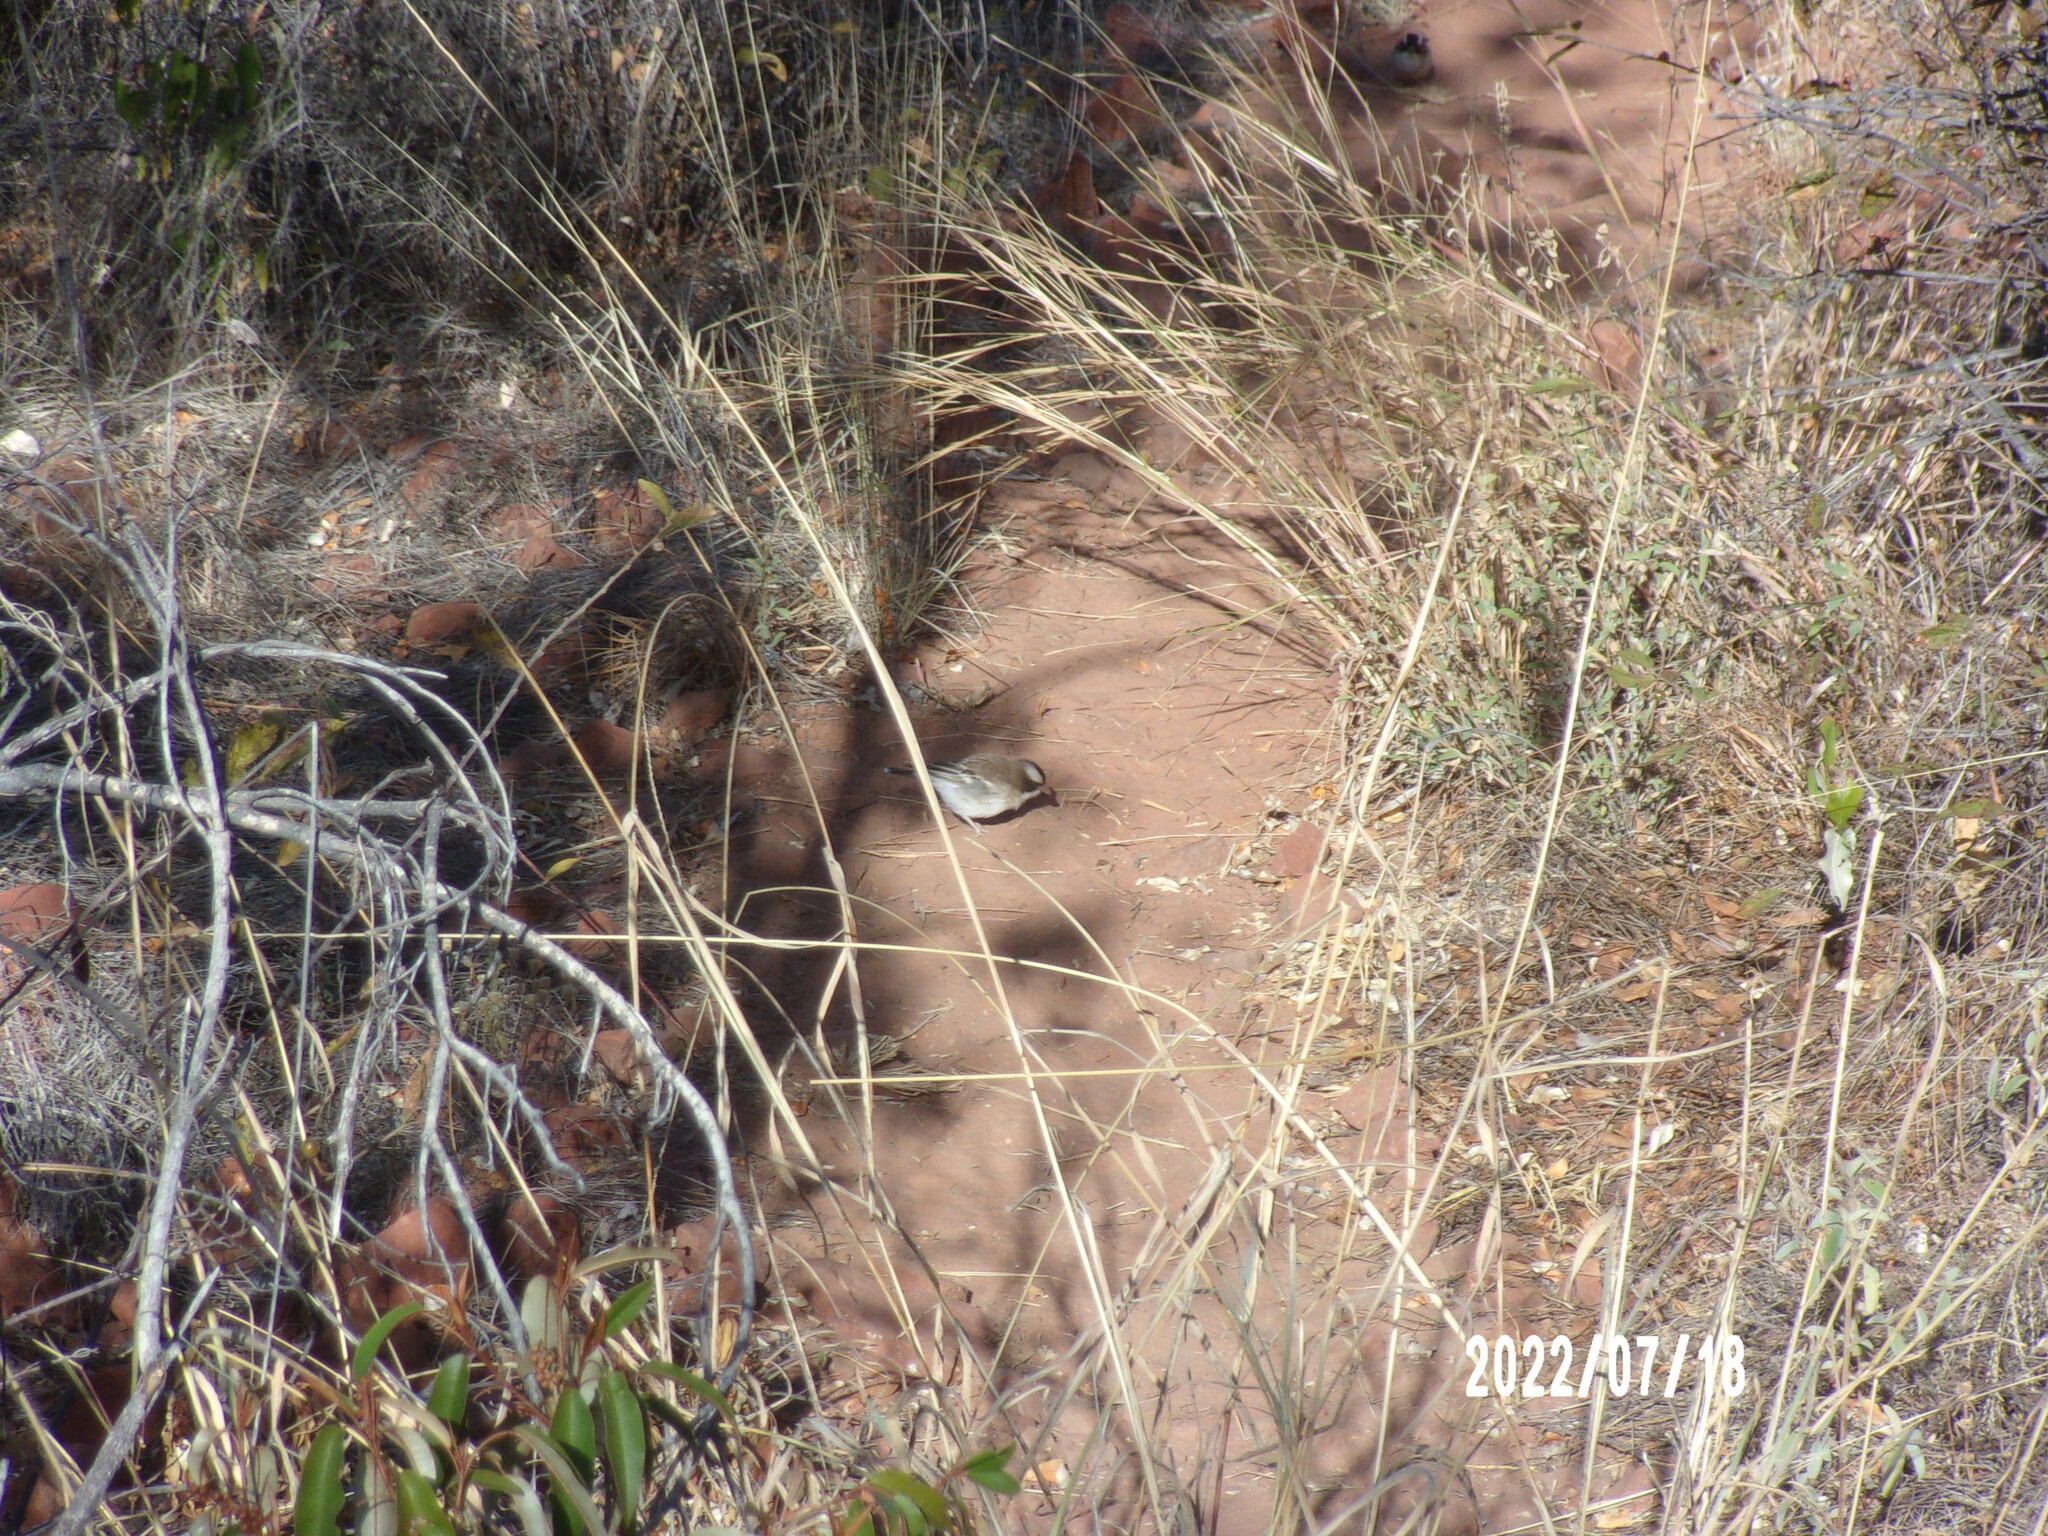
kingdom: Animalia
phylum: Chordata
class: Aves
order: Passeriformes
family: Passeridae
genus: Plocepasser
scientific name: Plocepasser mahali
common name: White-browed sparrow-weaver
